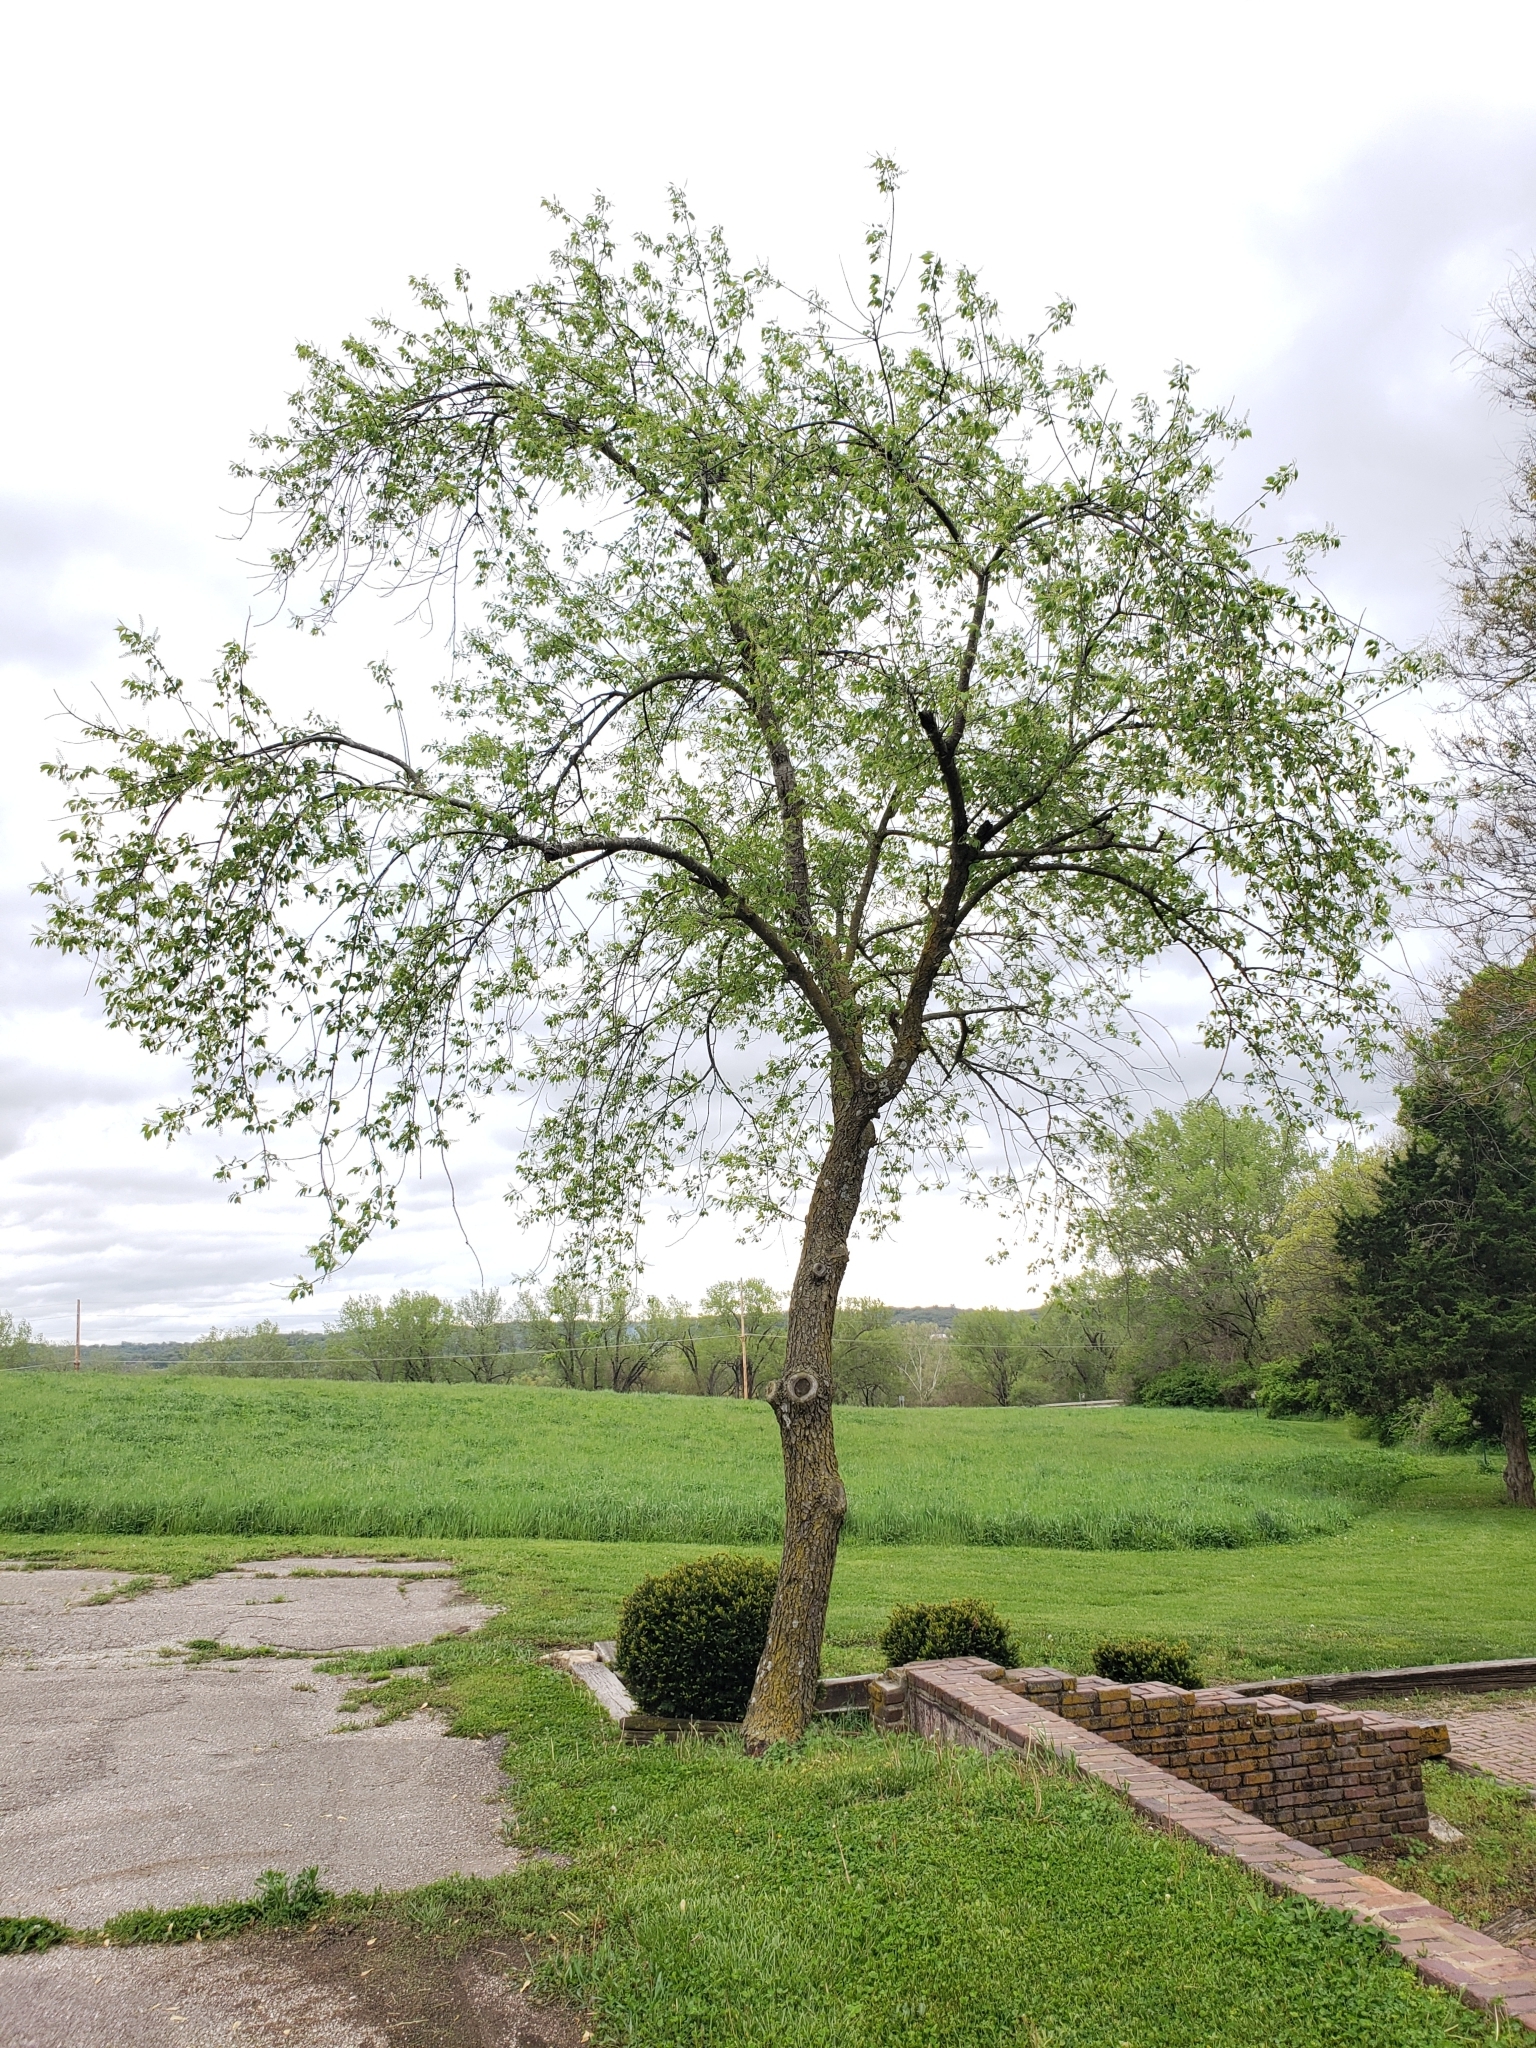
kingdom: Plantae
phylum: Tracheophyta
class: Magnoliopsida
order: Rosales
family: Rosaceae
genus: Prunus
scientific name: Prunus serotina
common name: Black cherry
